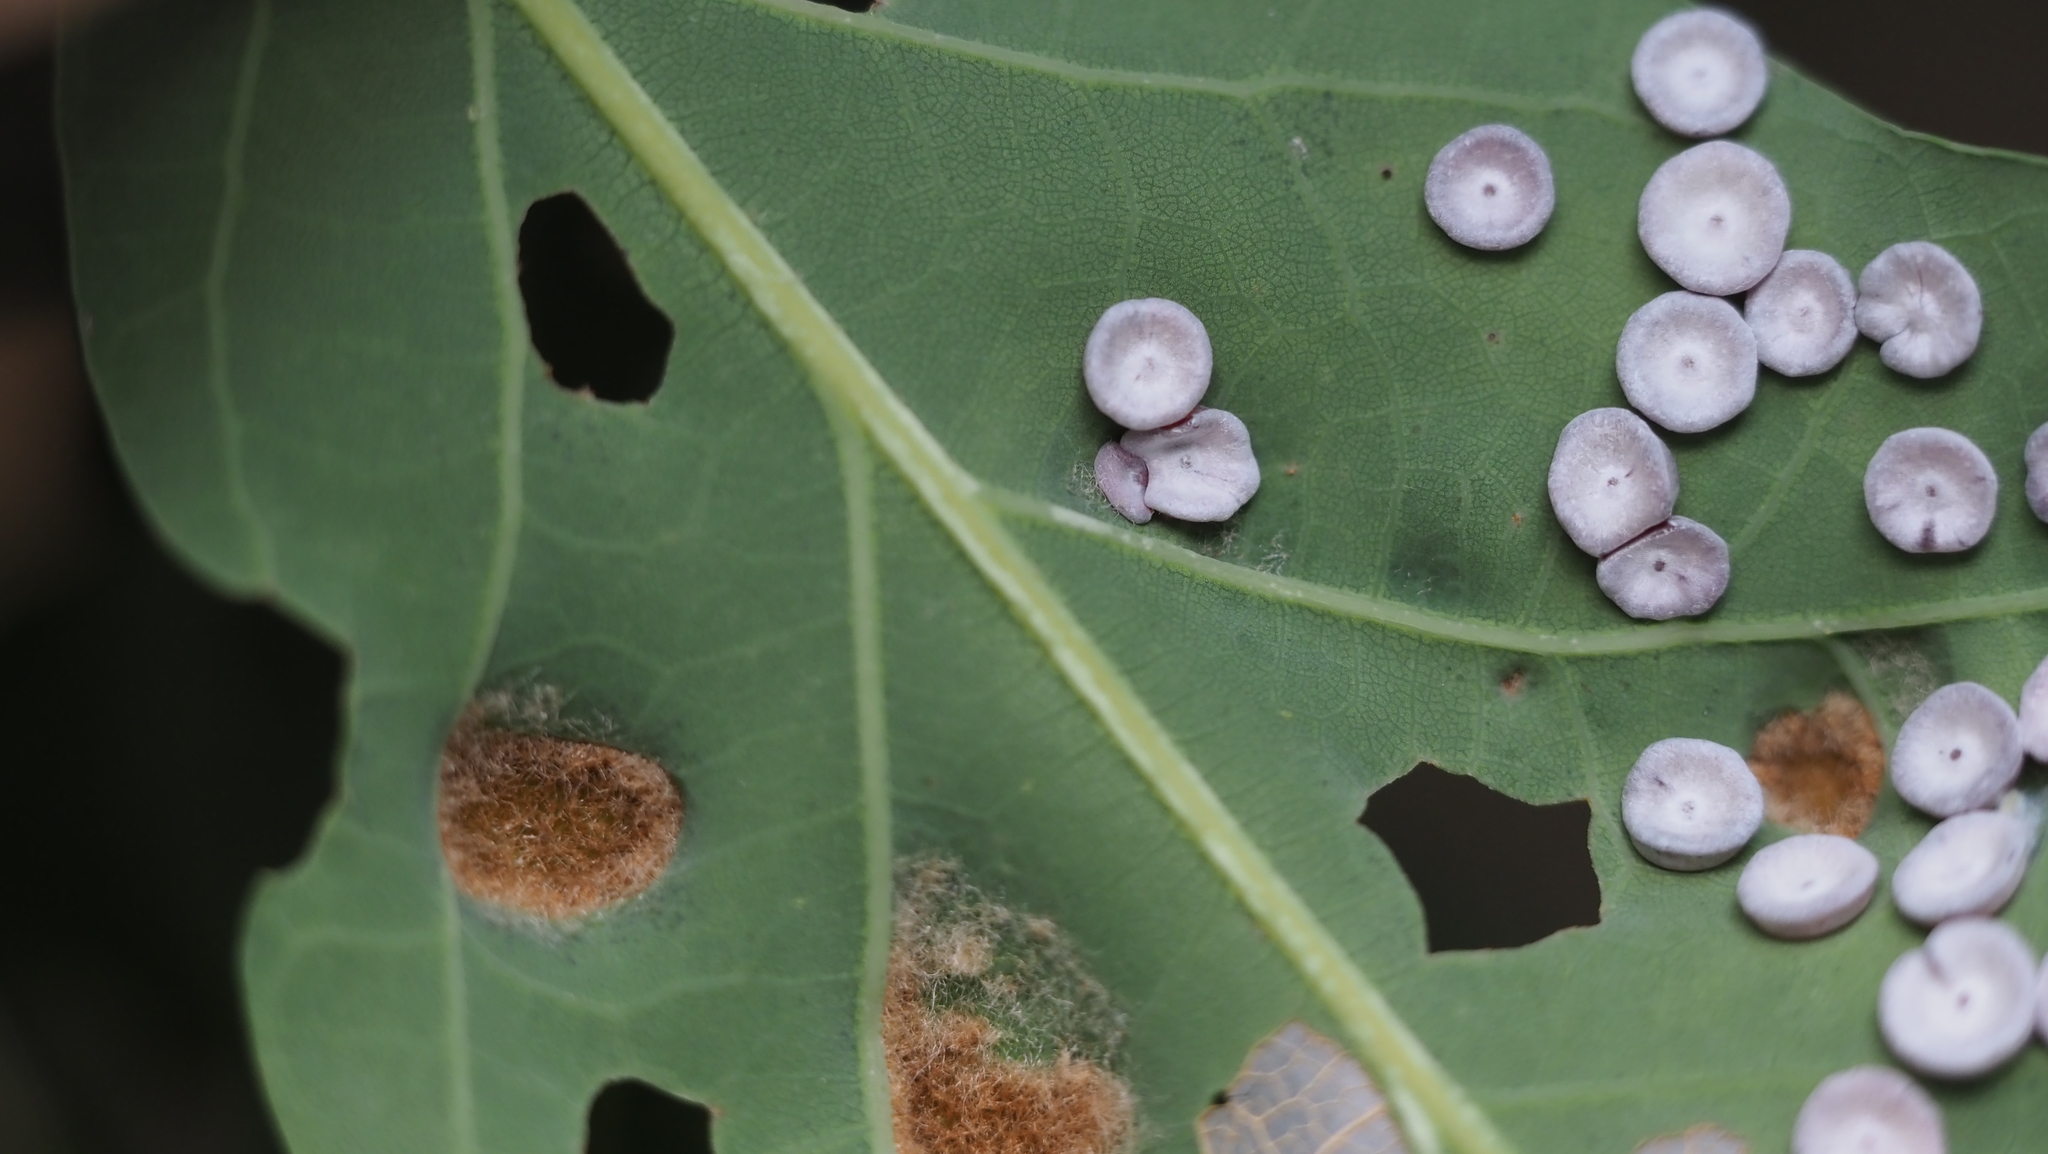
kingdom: Animalia
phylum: Arthropoda
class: Arachnida
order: Trombidiformes
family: Eriophyidae
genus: Aceria
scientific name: Aceria
